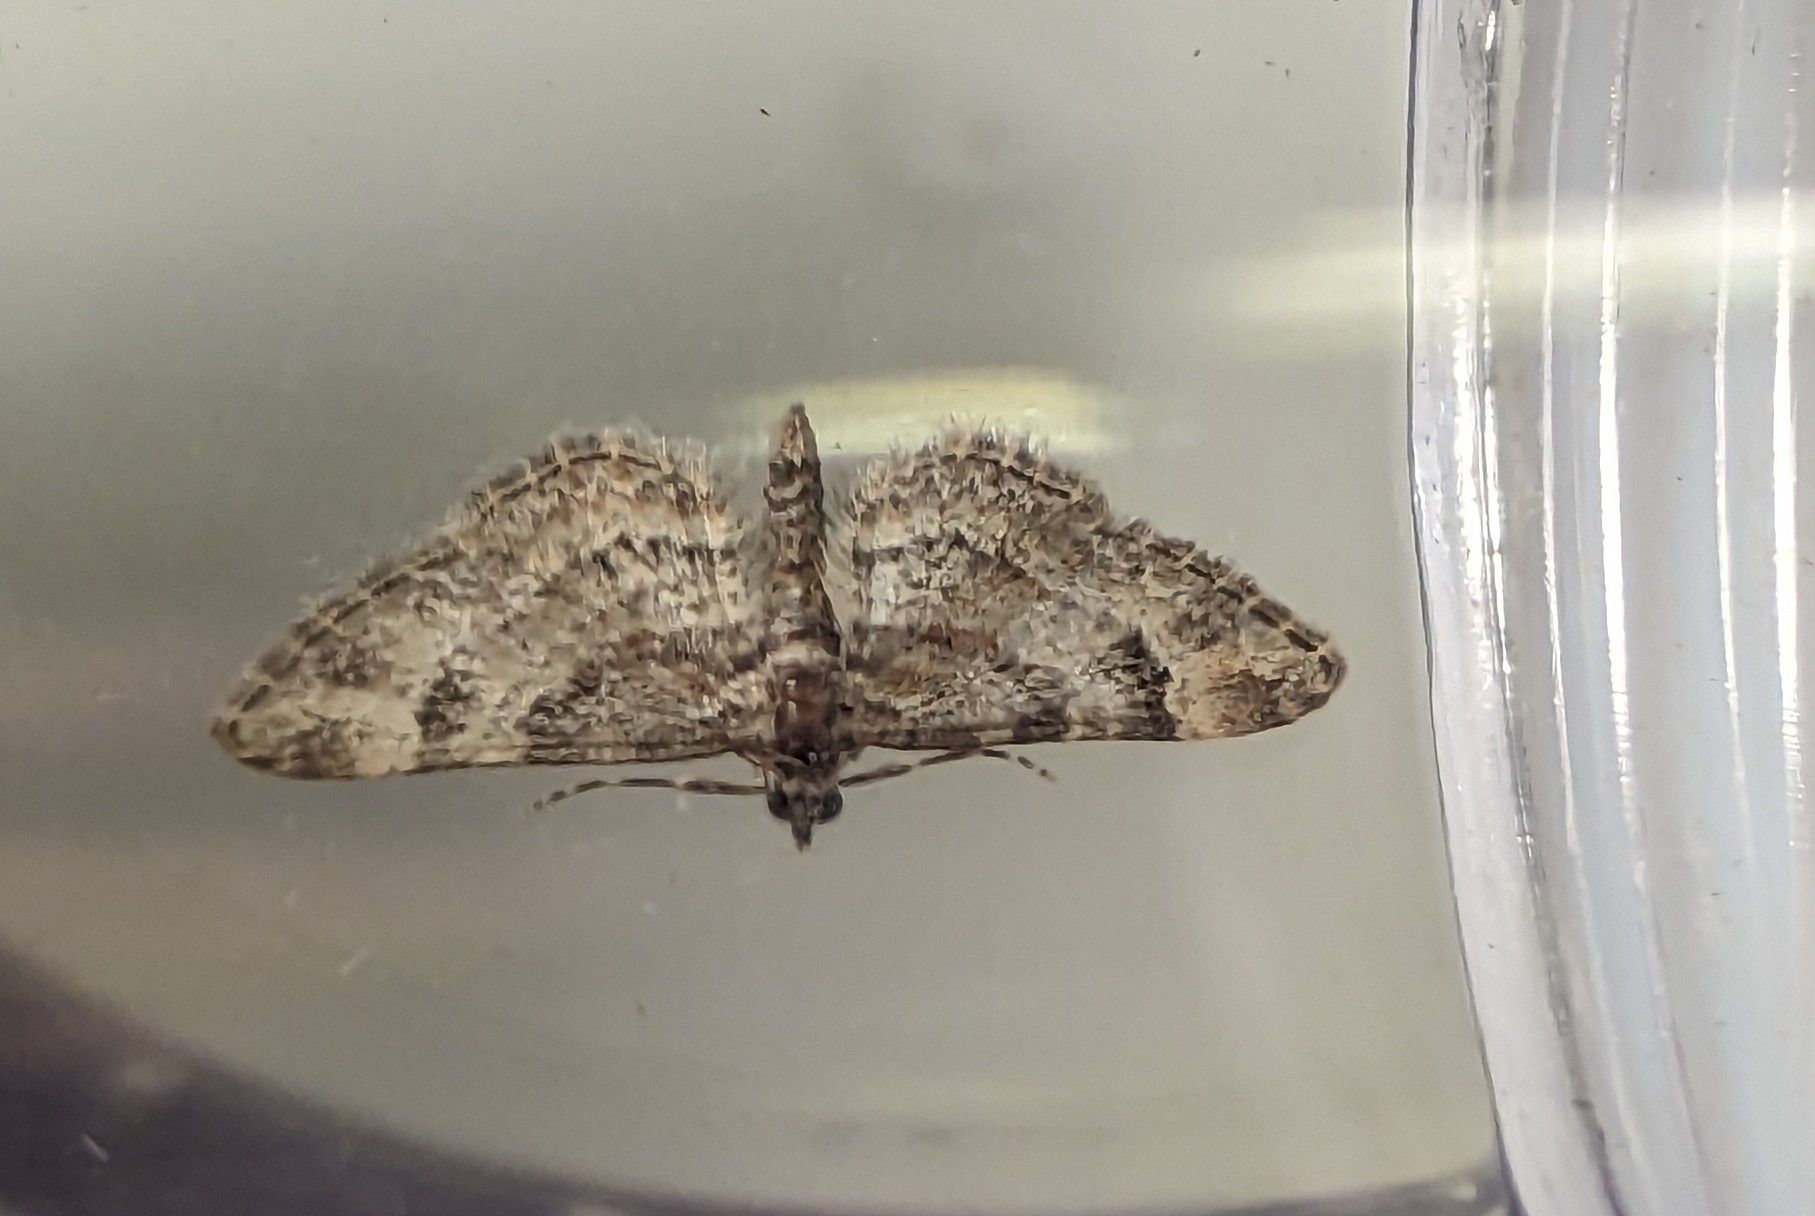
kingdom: Animalia
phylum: Arthropoda
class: Insecta
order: Lepidoptera
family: Geometridae
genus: Gymnoscelis
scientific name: Gymnoscelis rufifasciata
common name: Double-striped pug
